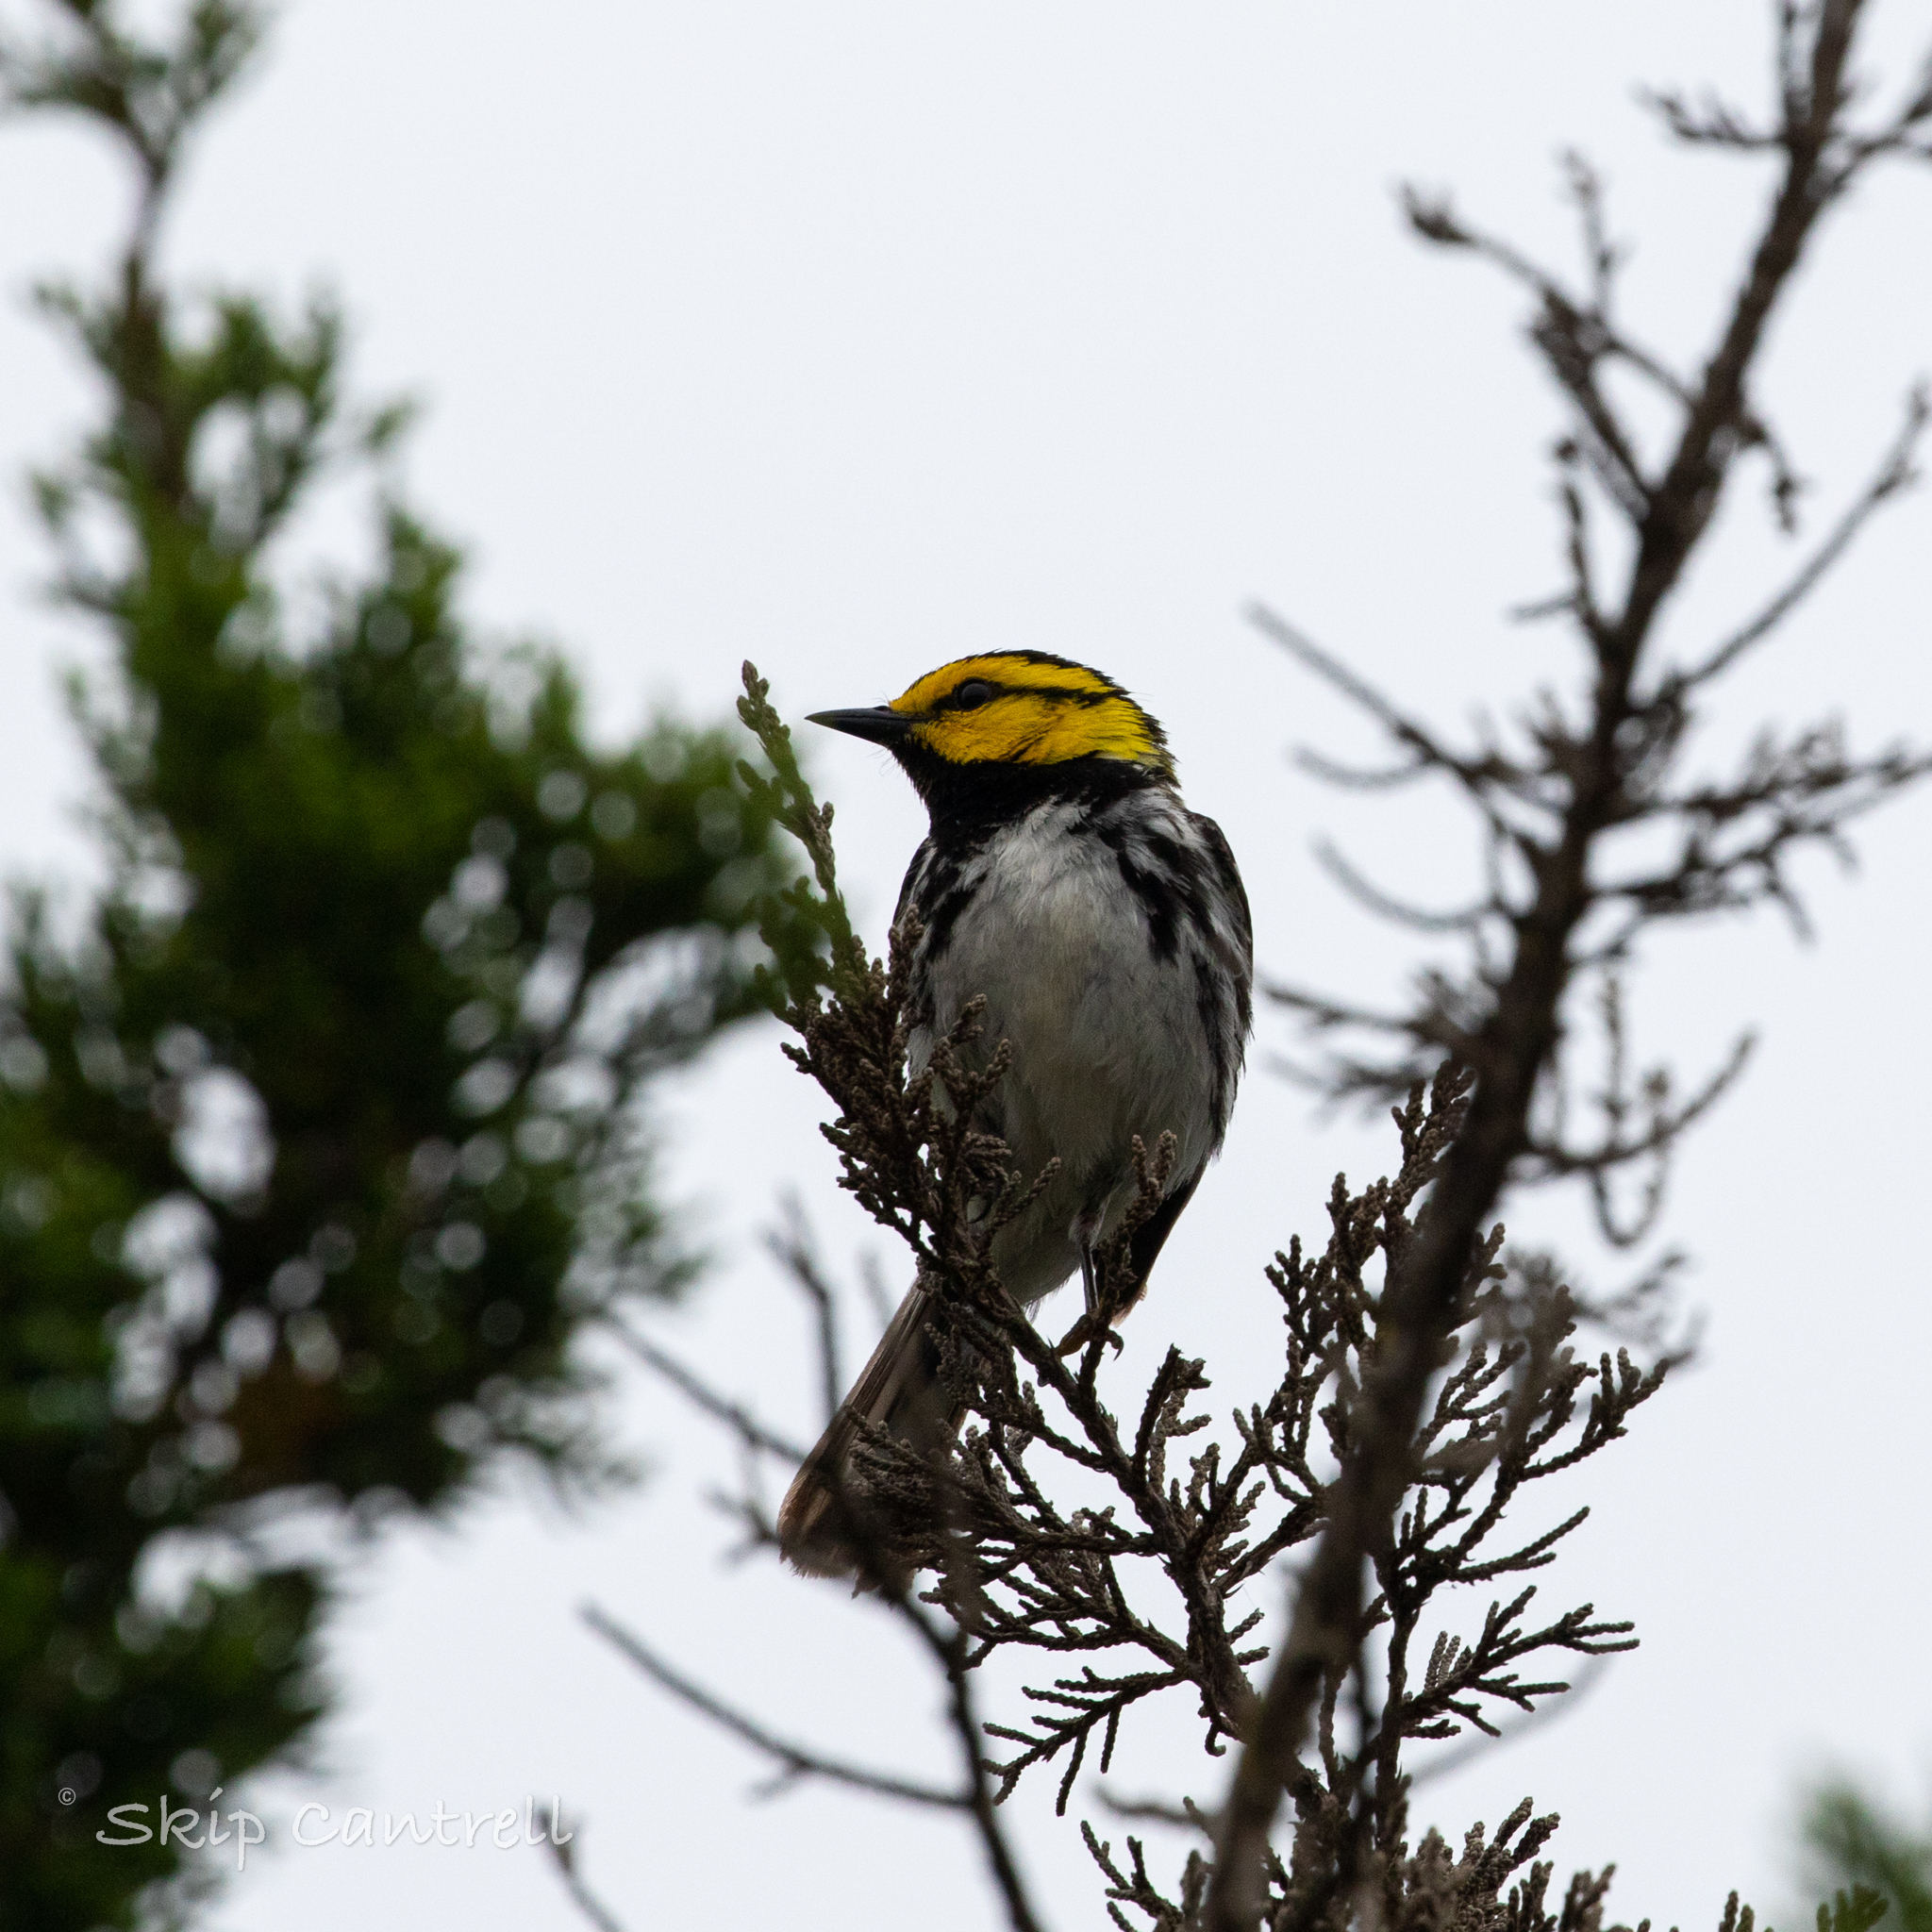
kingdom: Animalia
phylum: Chordata
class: Aves
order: Passeriformes
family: Parulidae
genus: Setophaga
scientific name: Setophaga chrysoparia
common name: Golden-cheeked warbler
